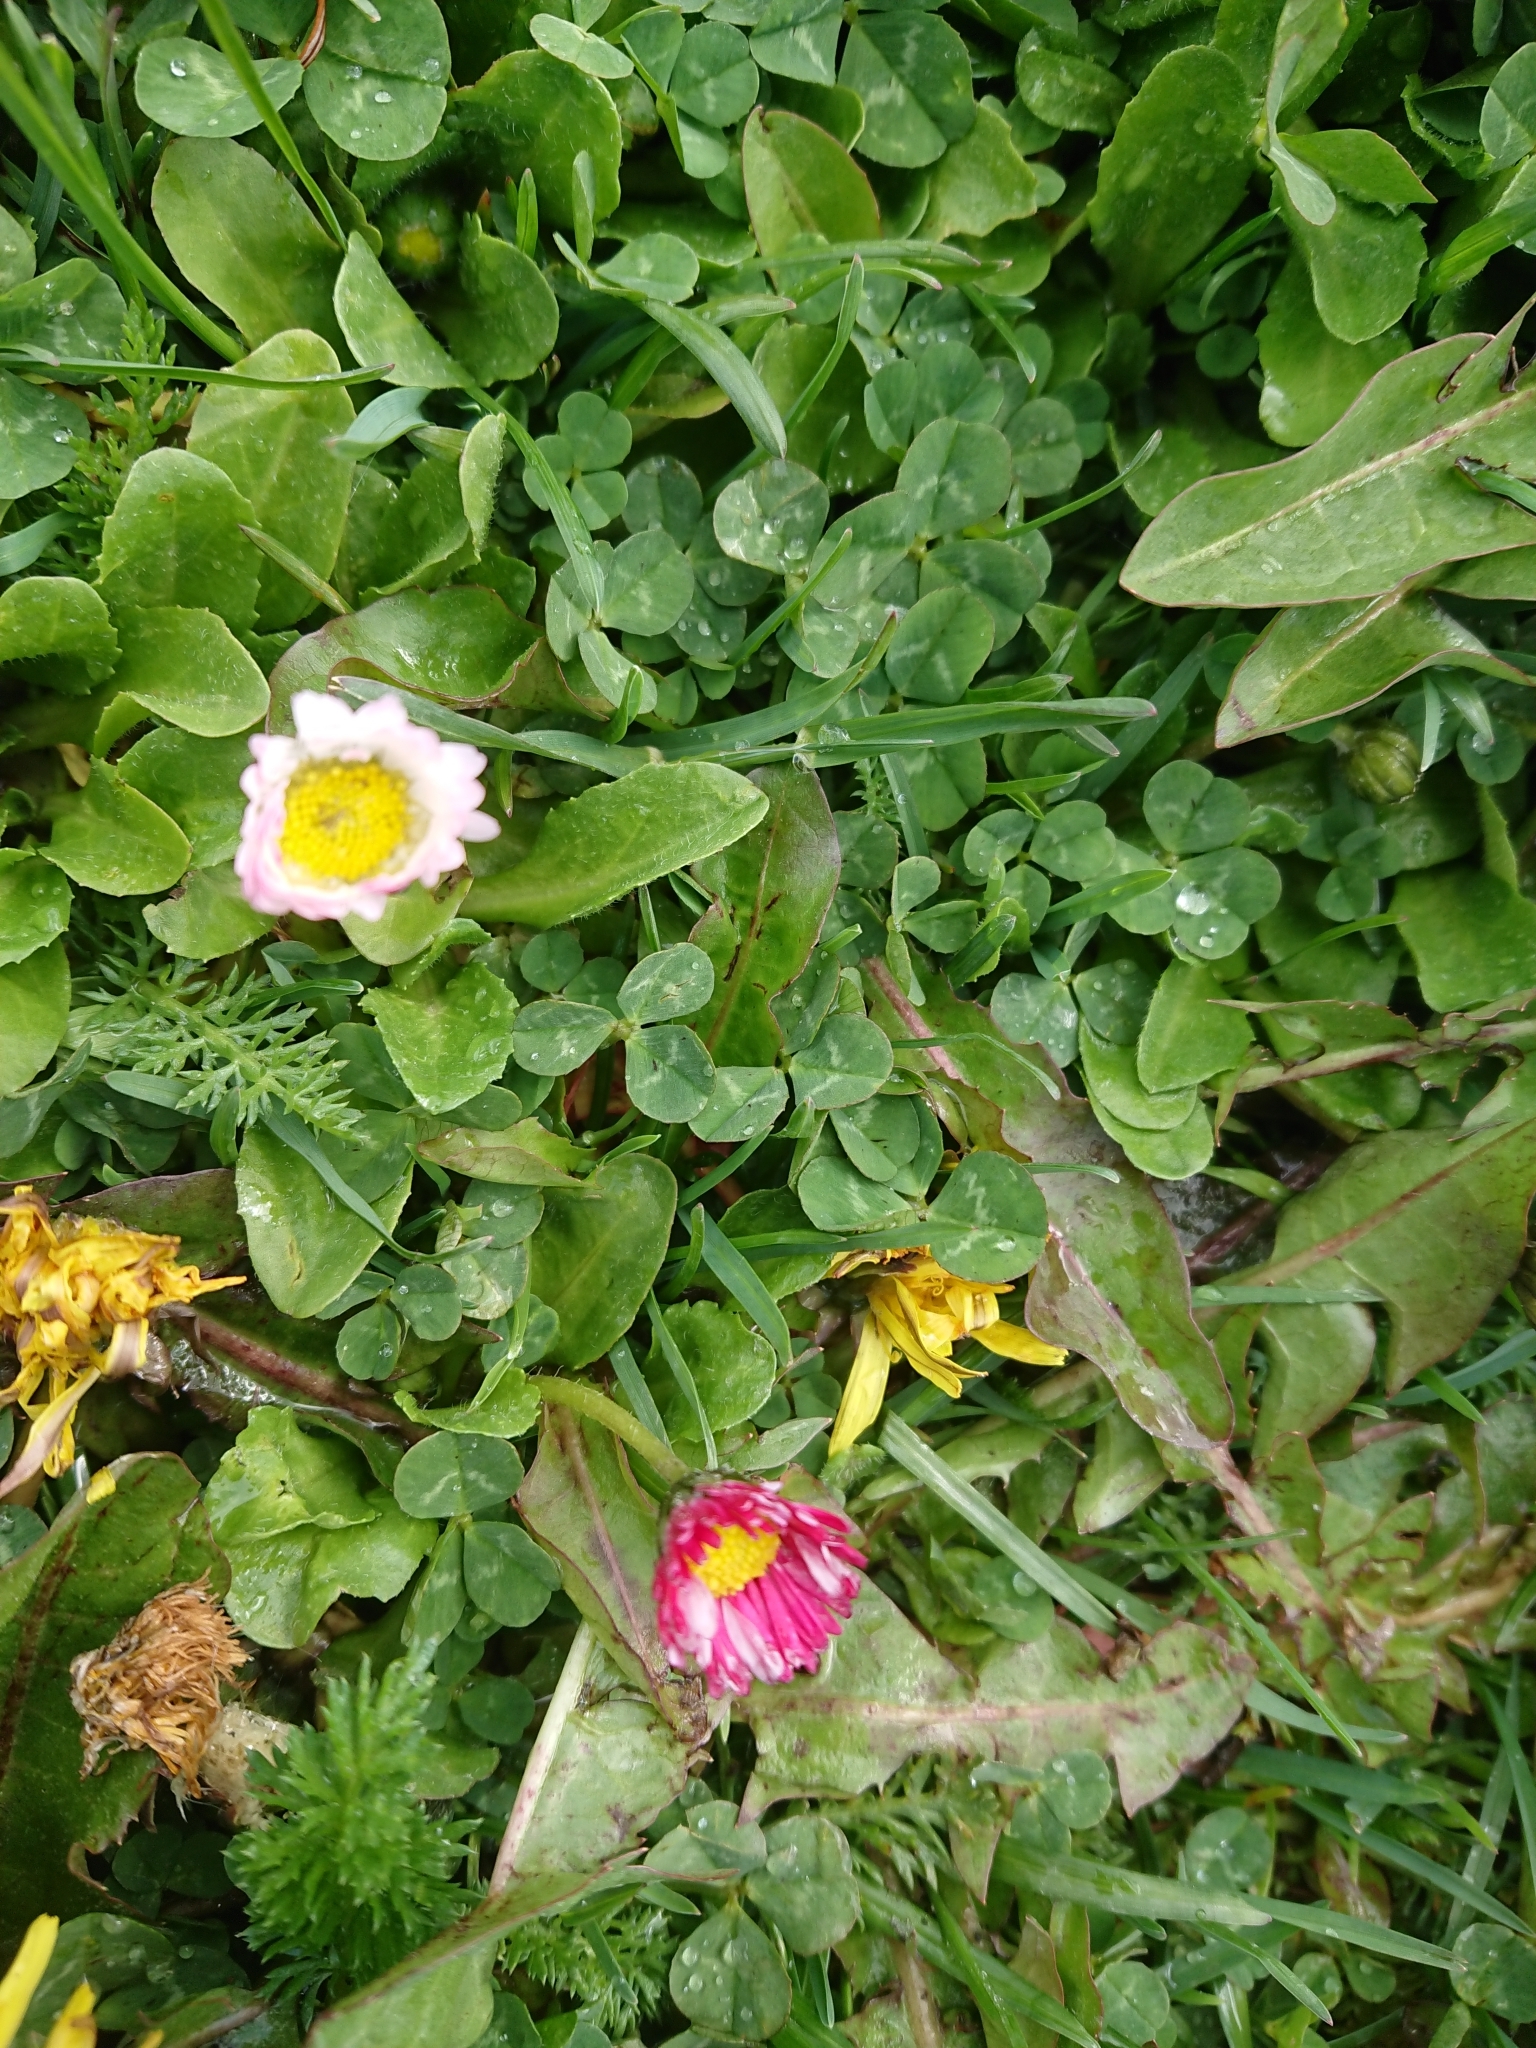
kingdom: Plantae
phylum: Tracheophyta
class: Magnoliopsida
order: Asterales
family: Asteraceae
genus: Bellis
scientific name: Bellis perennis
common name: Lawndaisy
